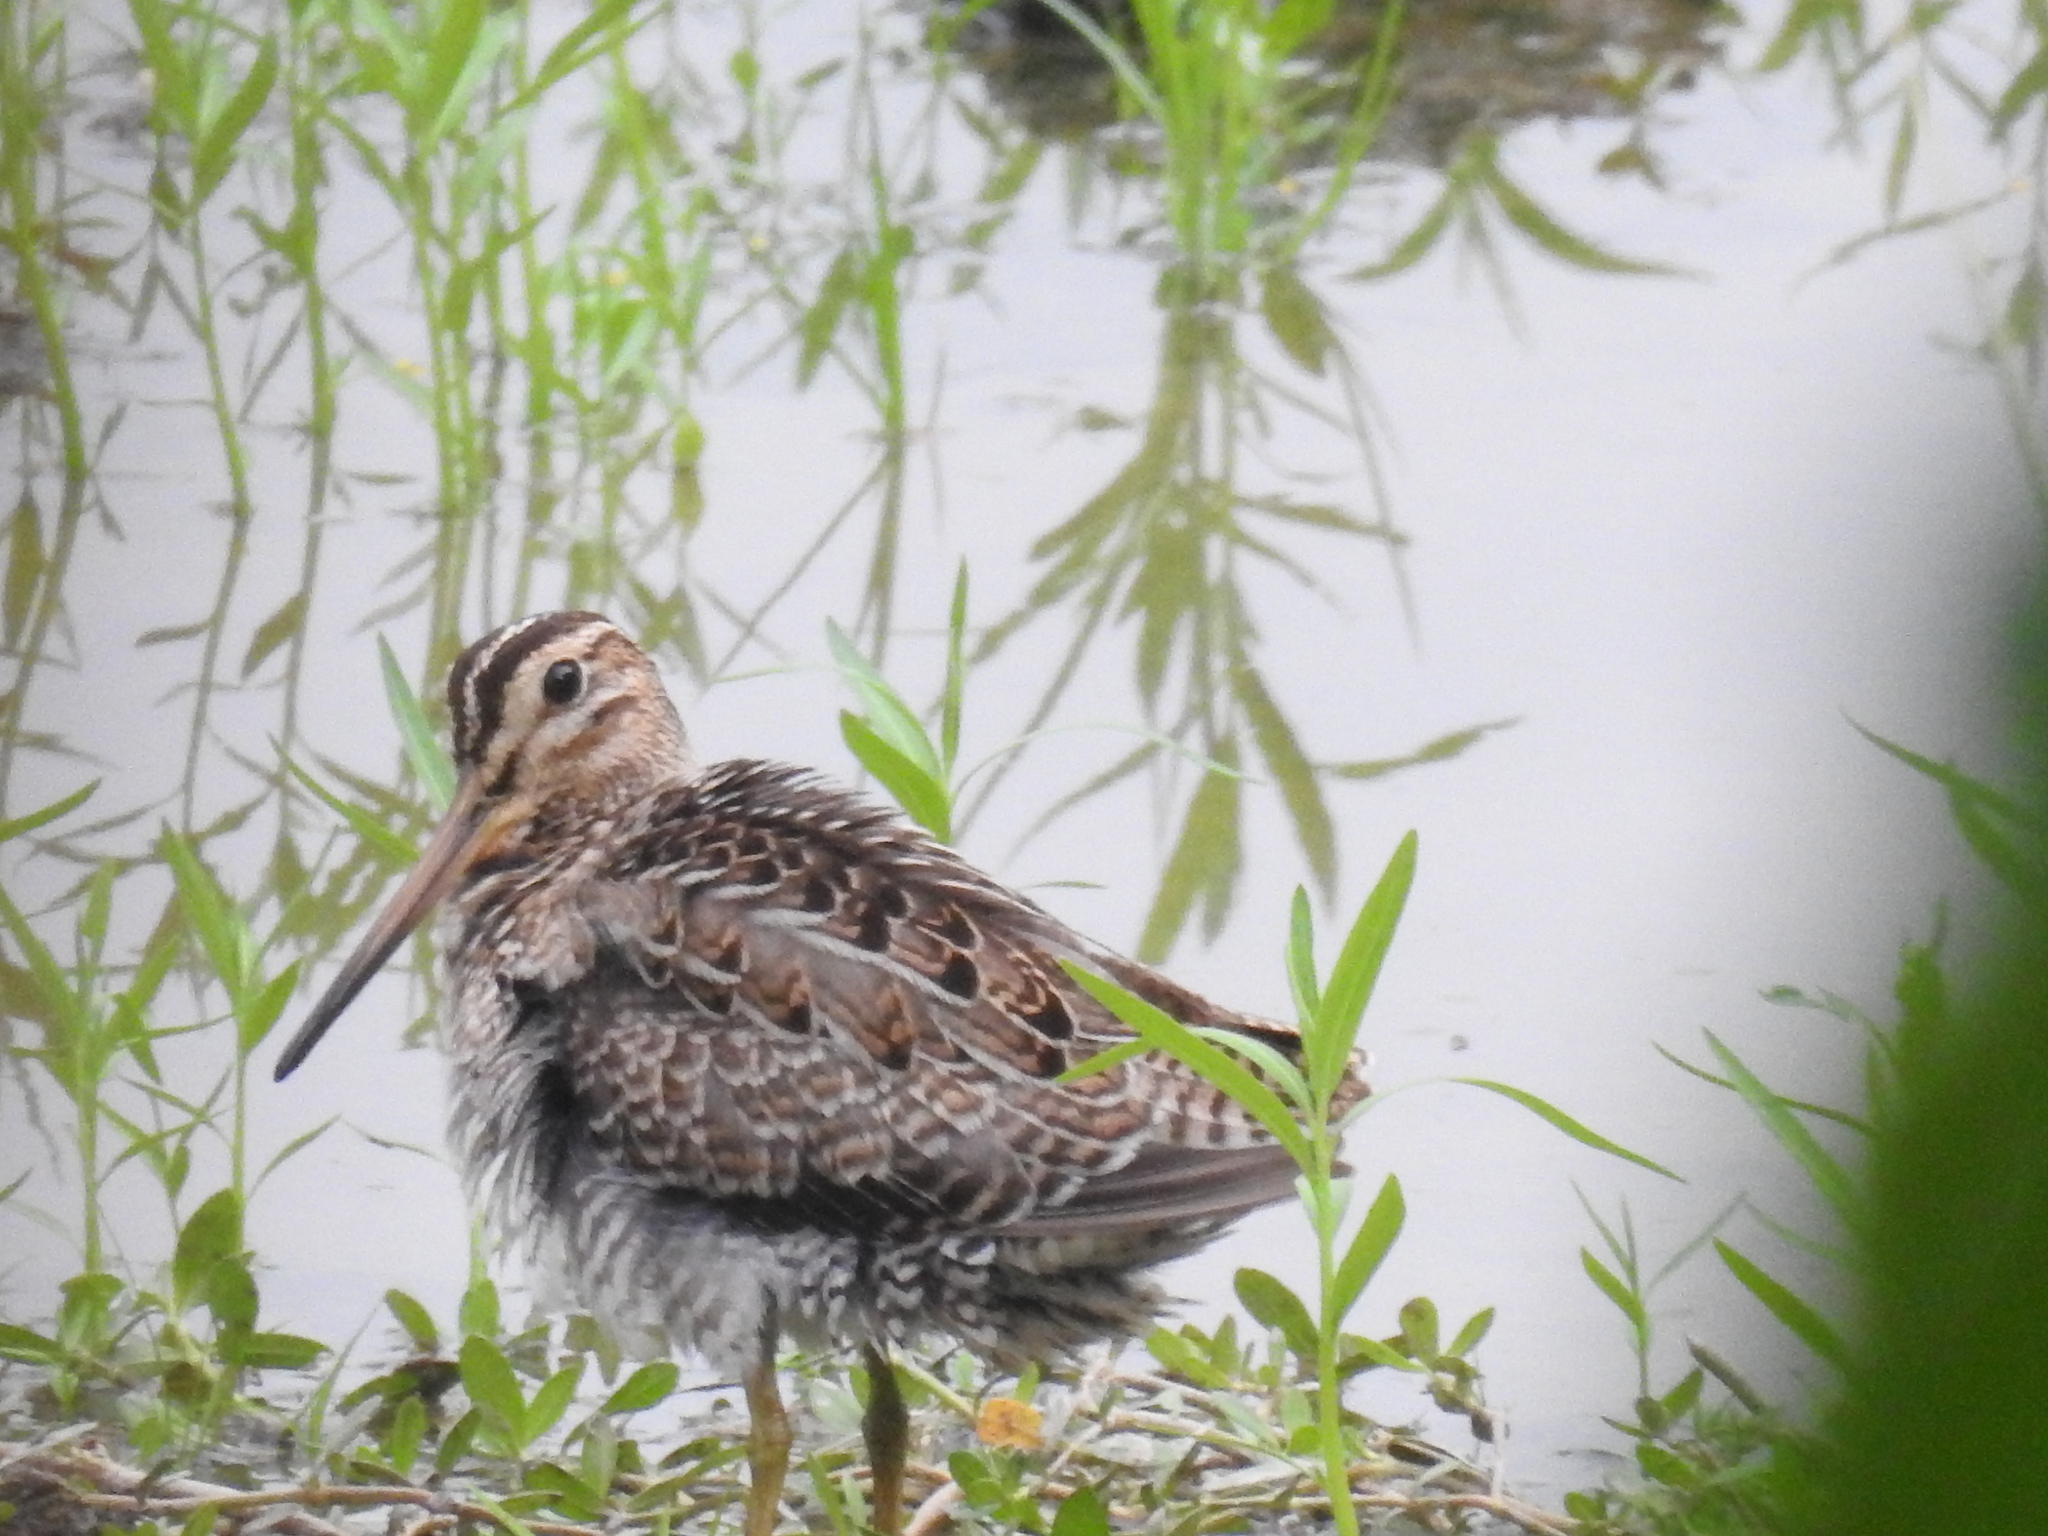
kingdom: Animalia
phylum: Chordata
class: Aves
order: Charadriiformes
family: Scolopacidae
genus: Gallinago
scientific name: Gallinago stenura
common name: Pin-tailed snipe
